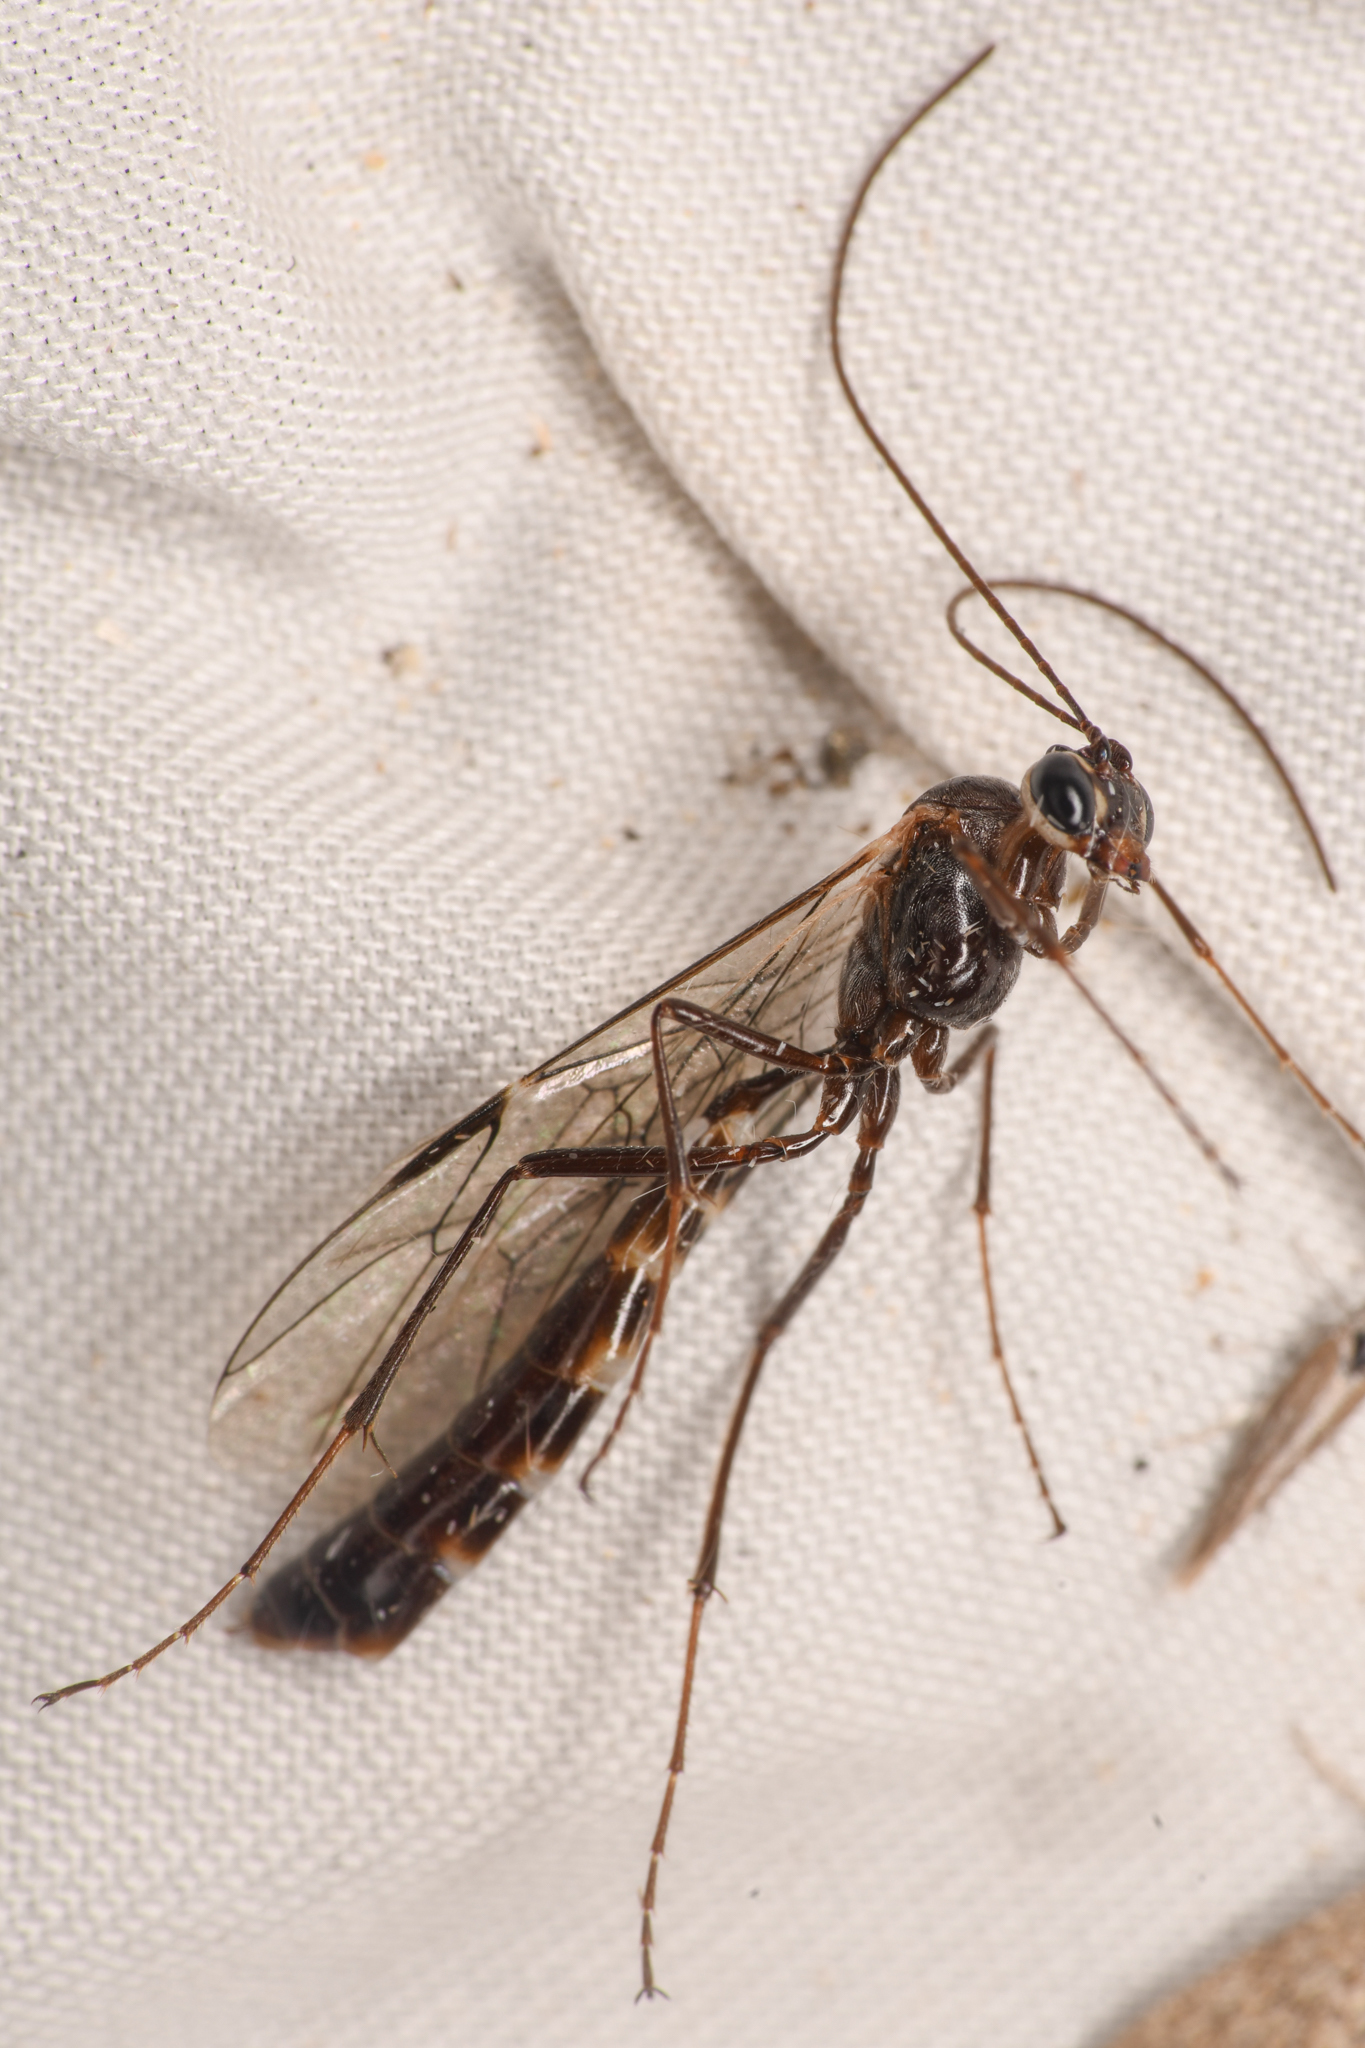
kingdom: Animalia
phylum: Arthropoda
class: Insecta
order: Hymenoptera
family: Ichneumonidae
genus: Simophion
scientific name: Simophion excarinatus
